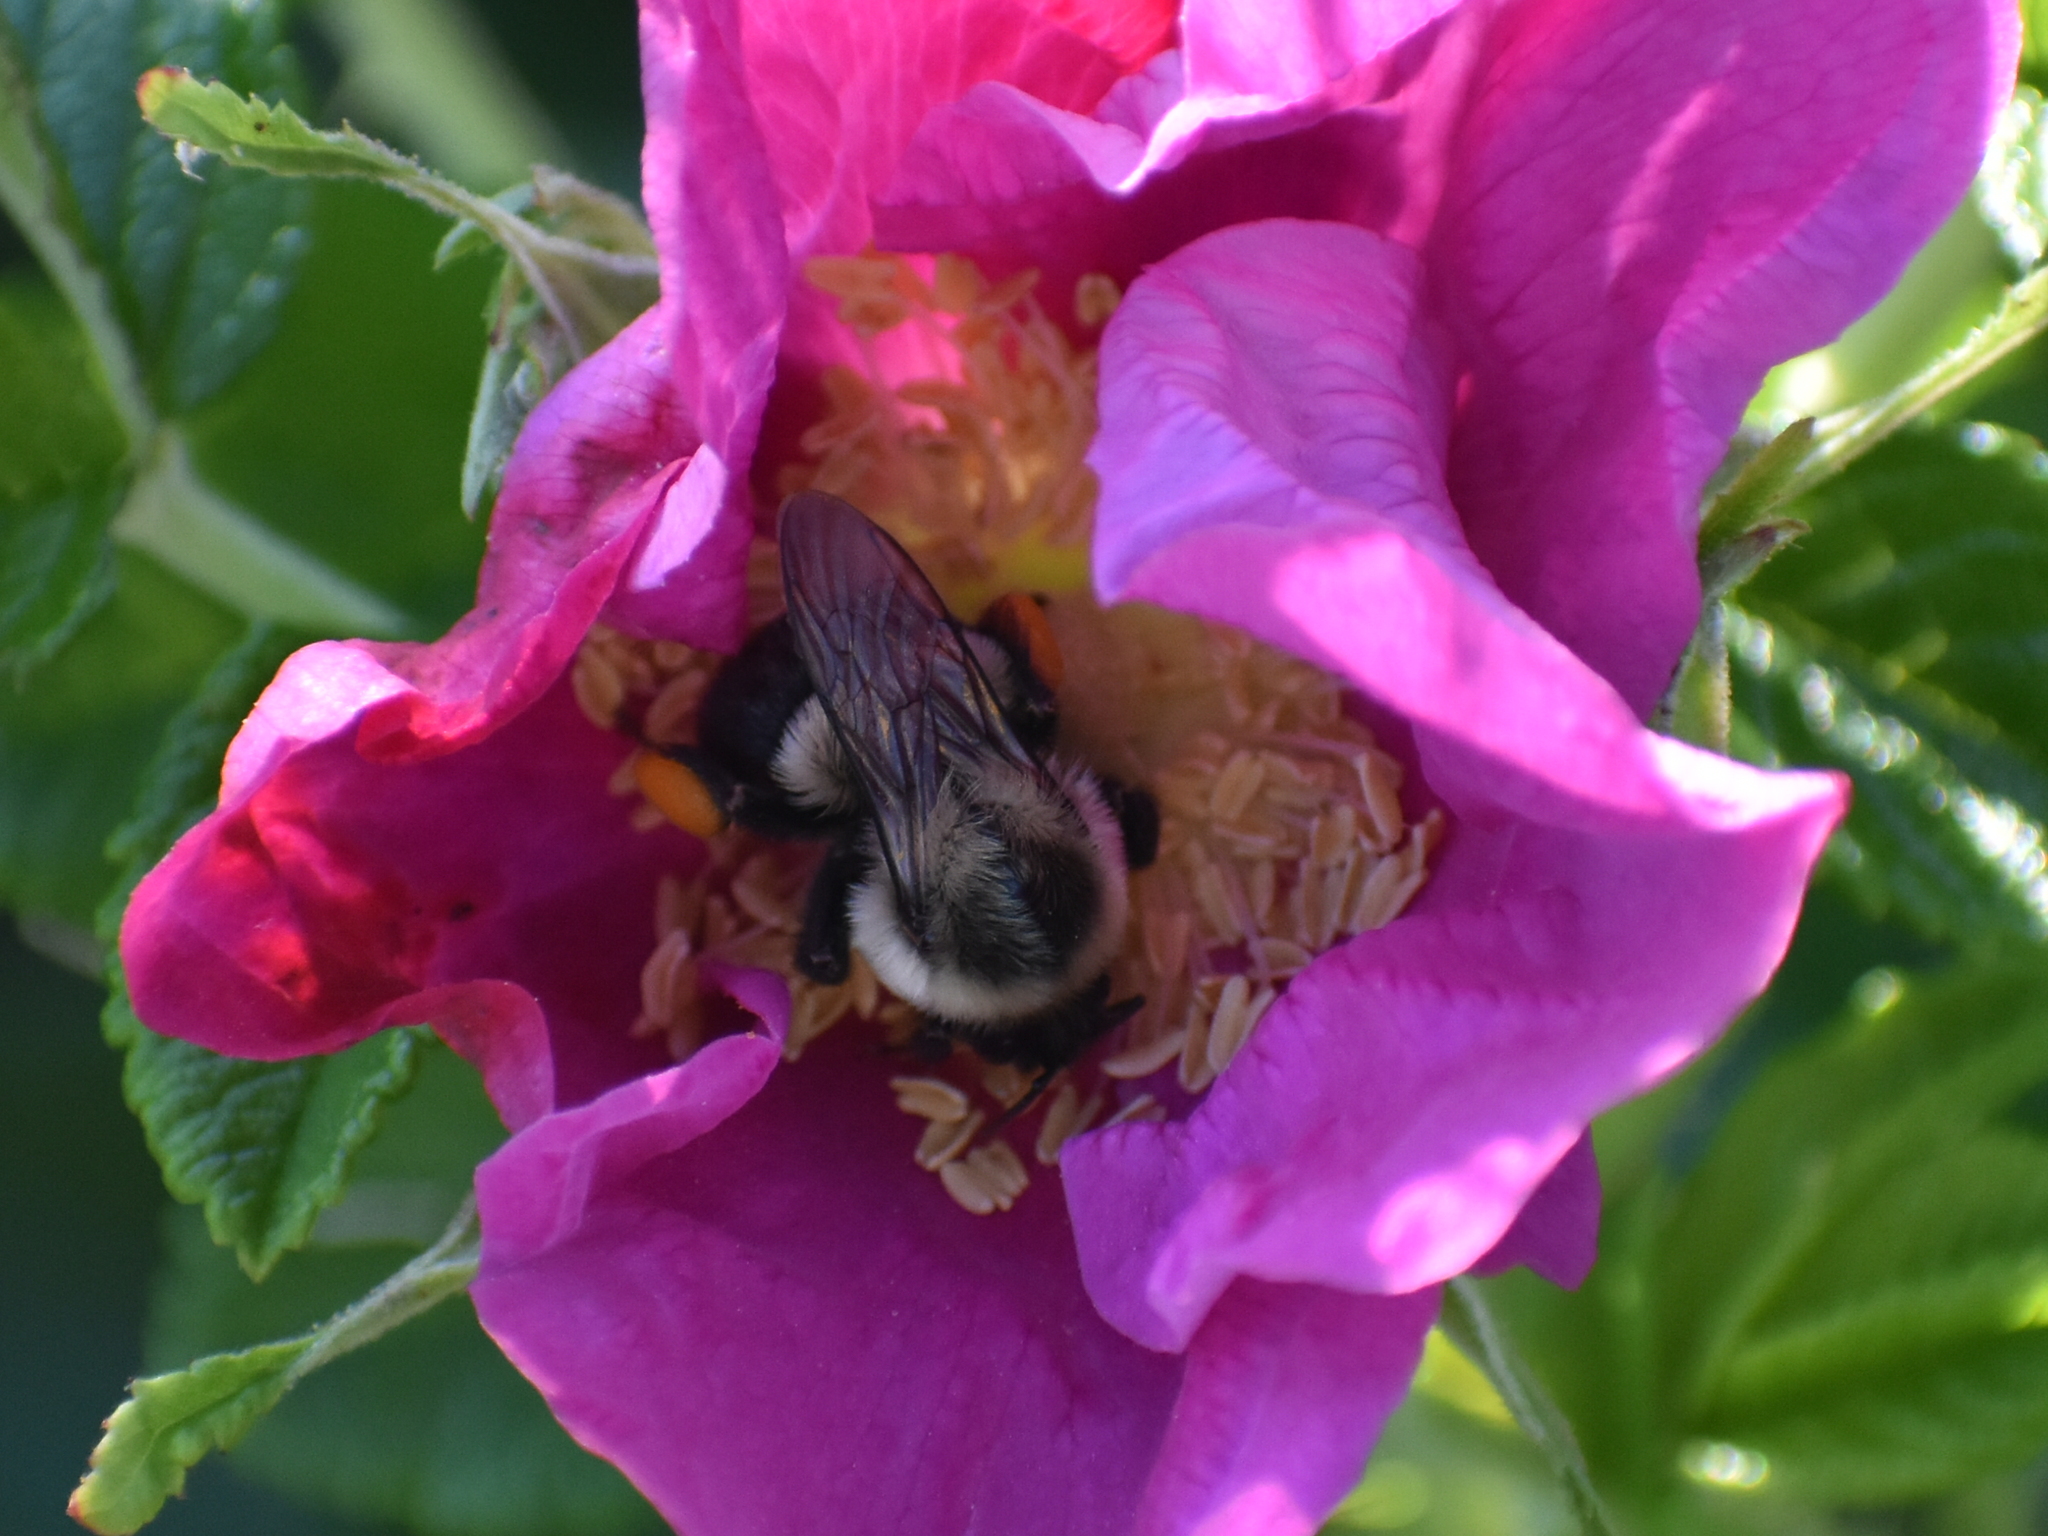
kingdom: Animalia
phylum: Arthropoda
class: Insecta
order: Hymenoptera
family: Apidae
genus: Bombus
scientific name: Bombus impatiens
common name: Common eastern bumble bee
